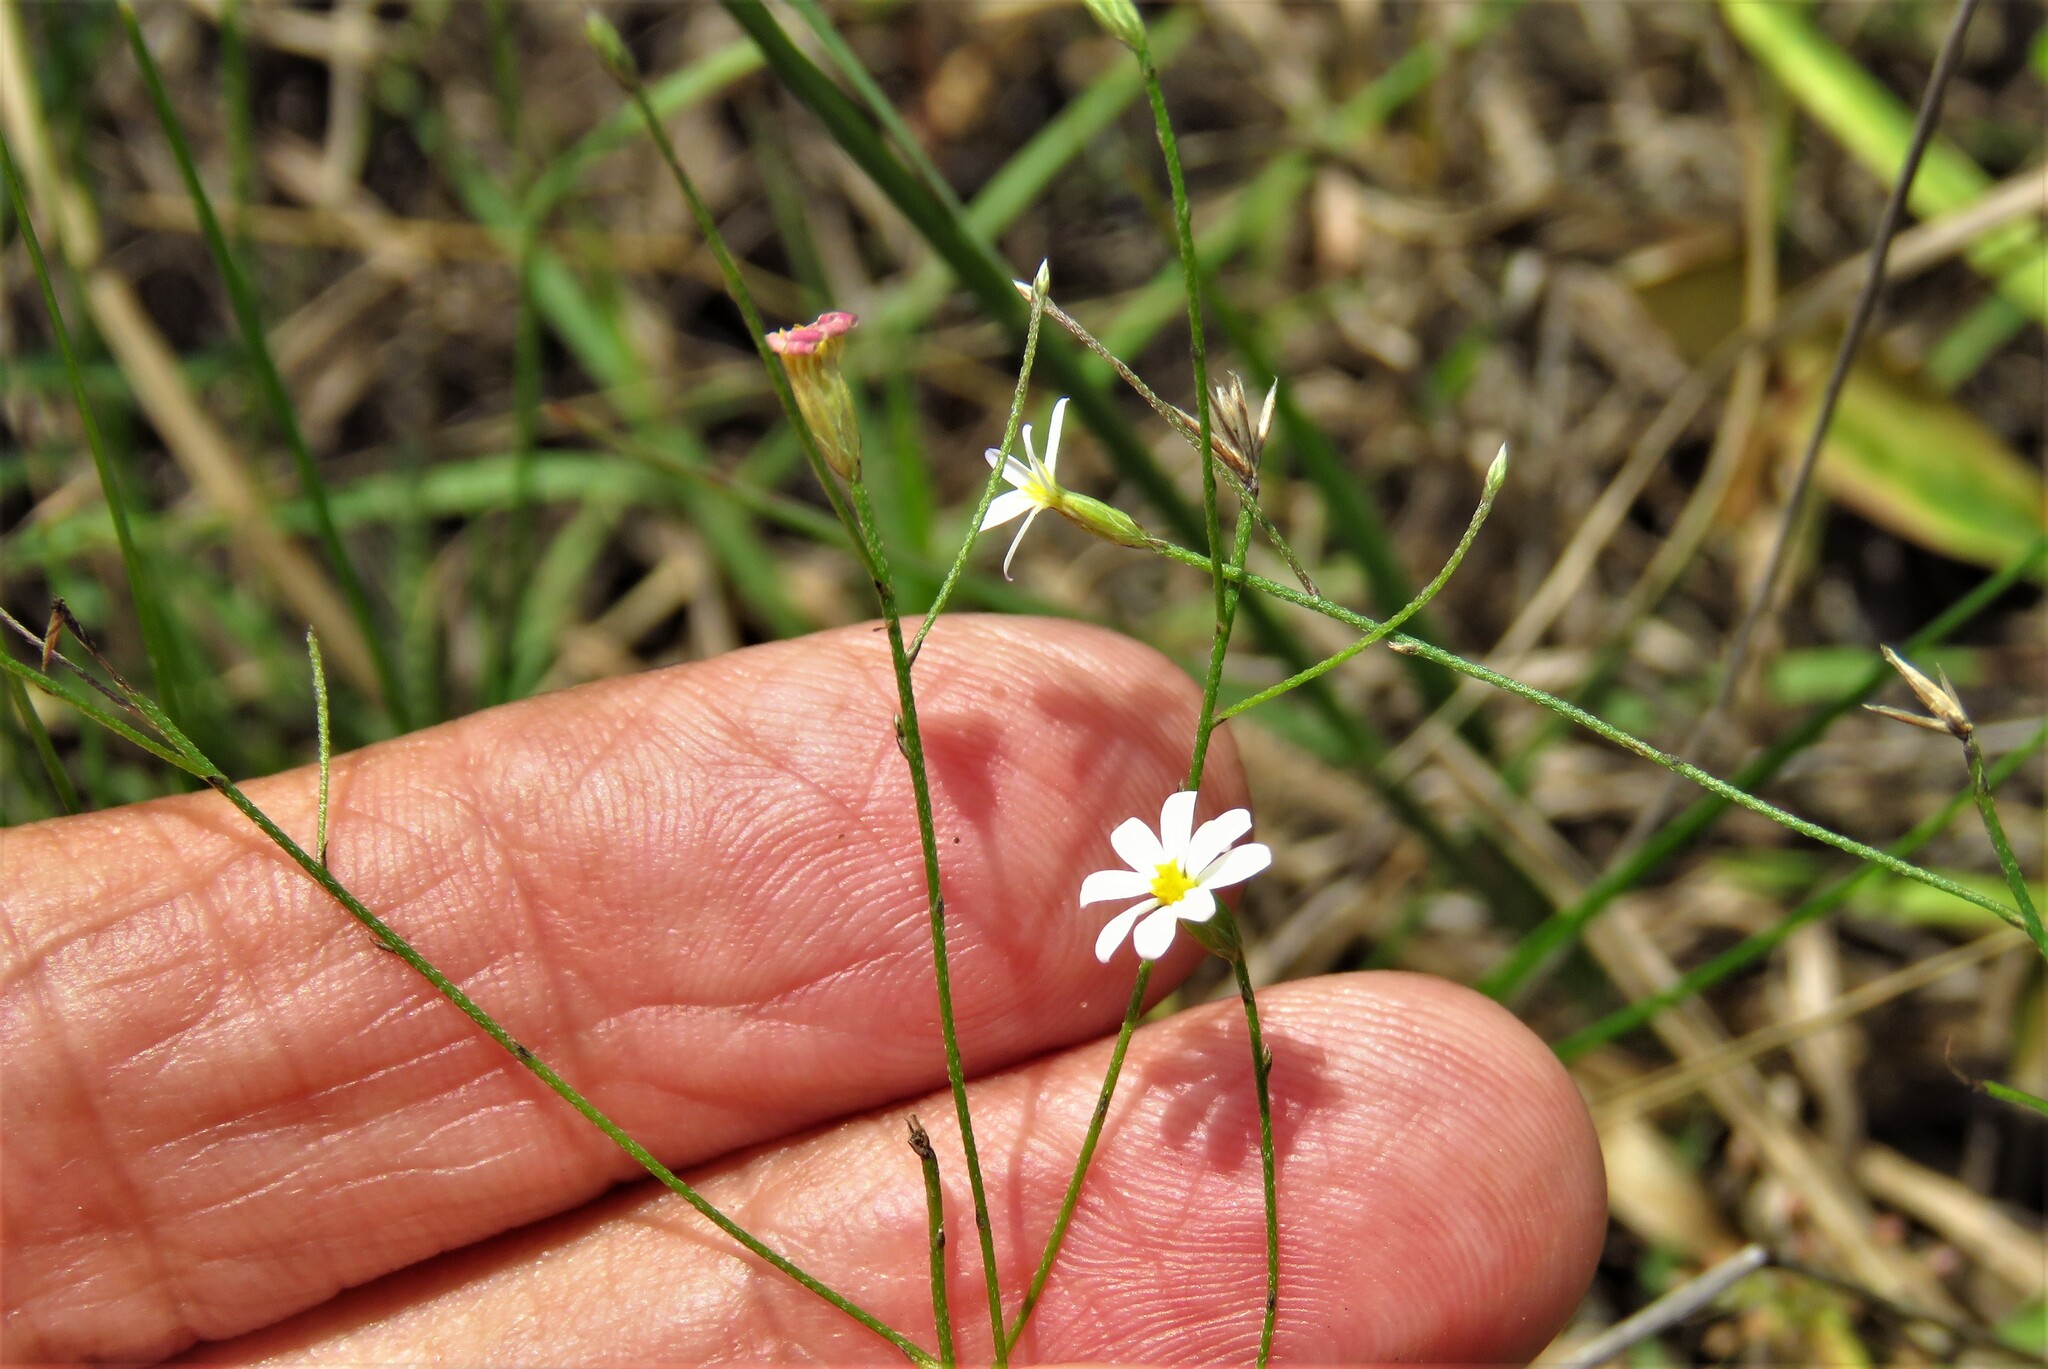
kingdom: Plantae
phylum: Tracheophyta
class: Magnoliopsida
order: Asterales
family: Asteraceae
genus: Chaetopappa
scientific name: Chaetopappa asteroides
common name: Tiny lazy daisy
